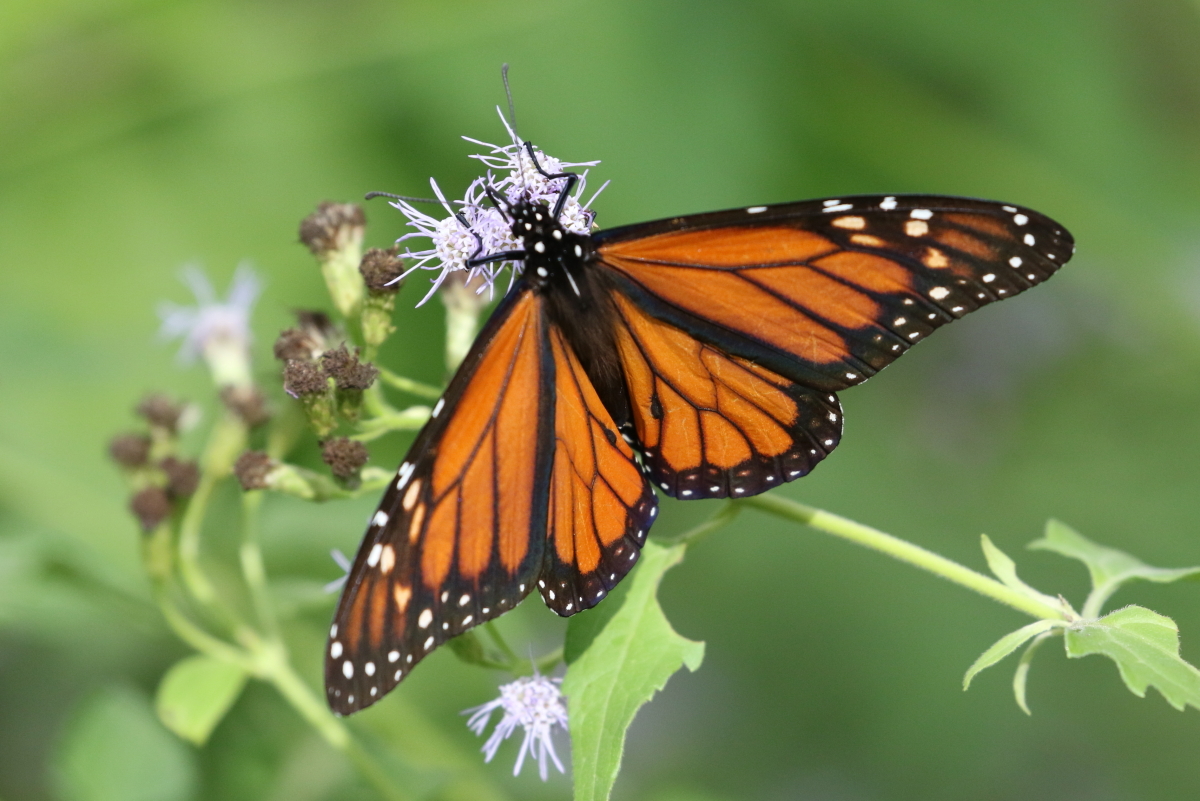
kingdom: Animalia
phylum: Arthropoda
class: Insecta
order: Lepidoptera
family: Nymphalidae
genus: Danaus
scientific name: Danaus plexippus
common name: Monarch
